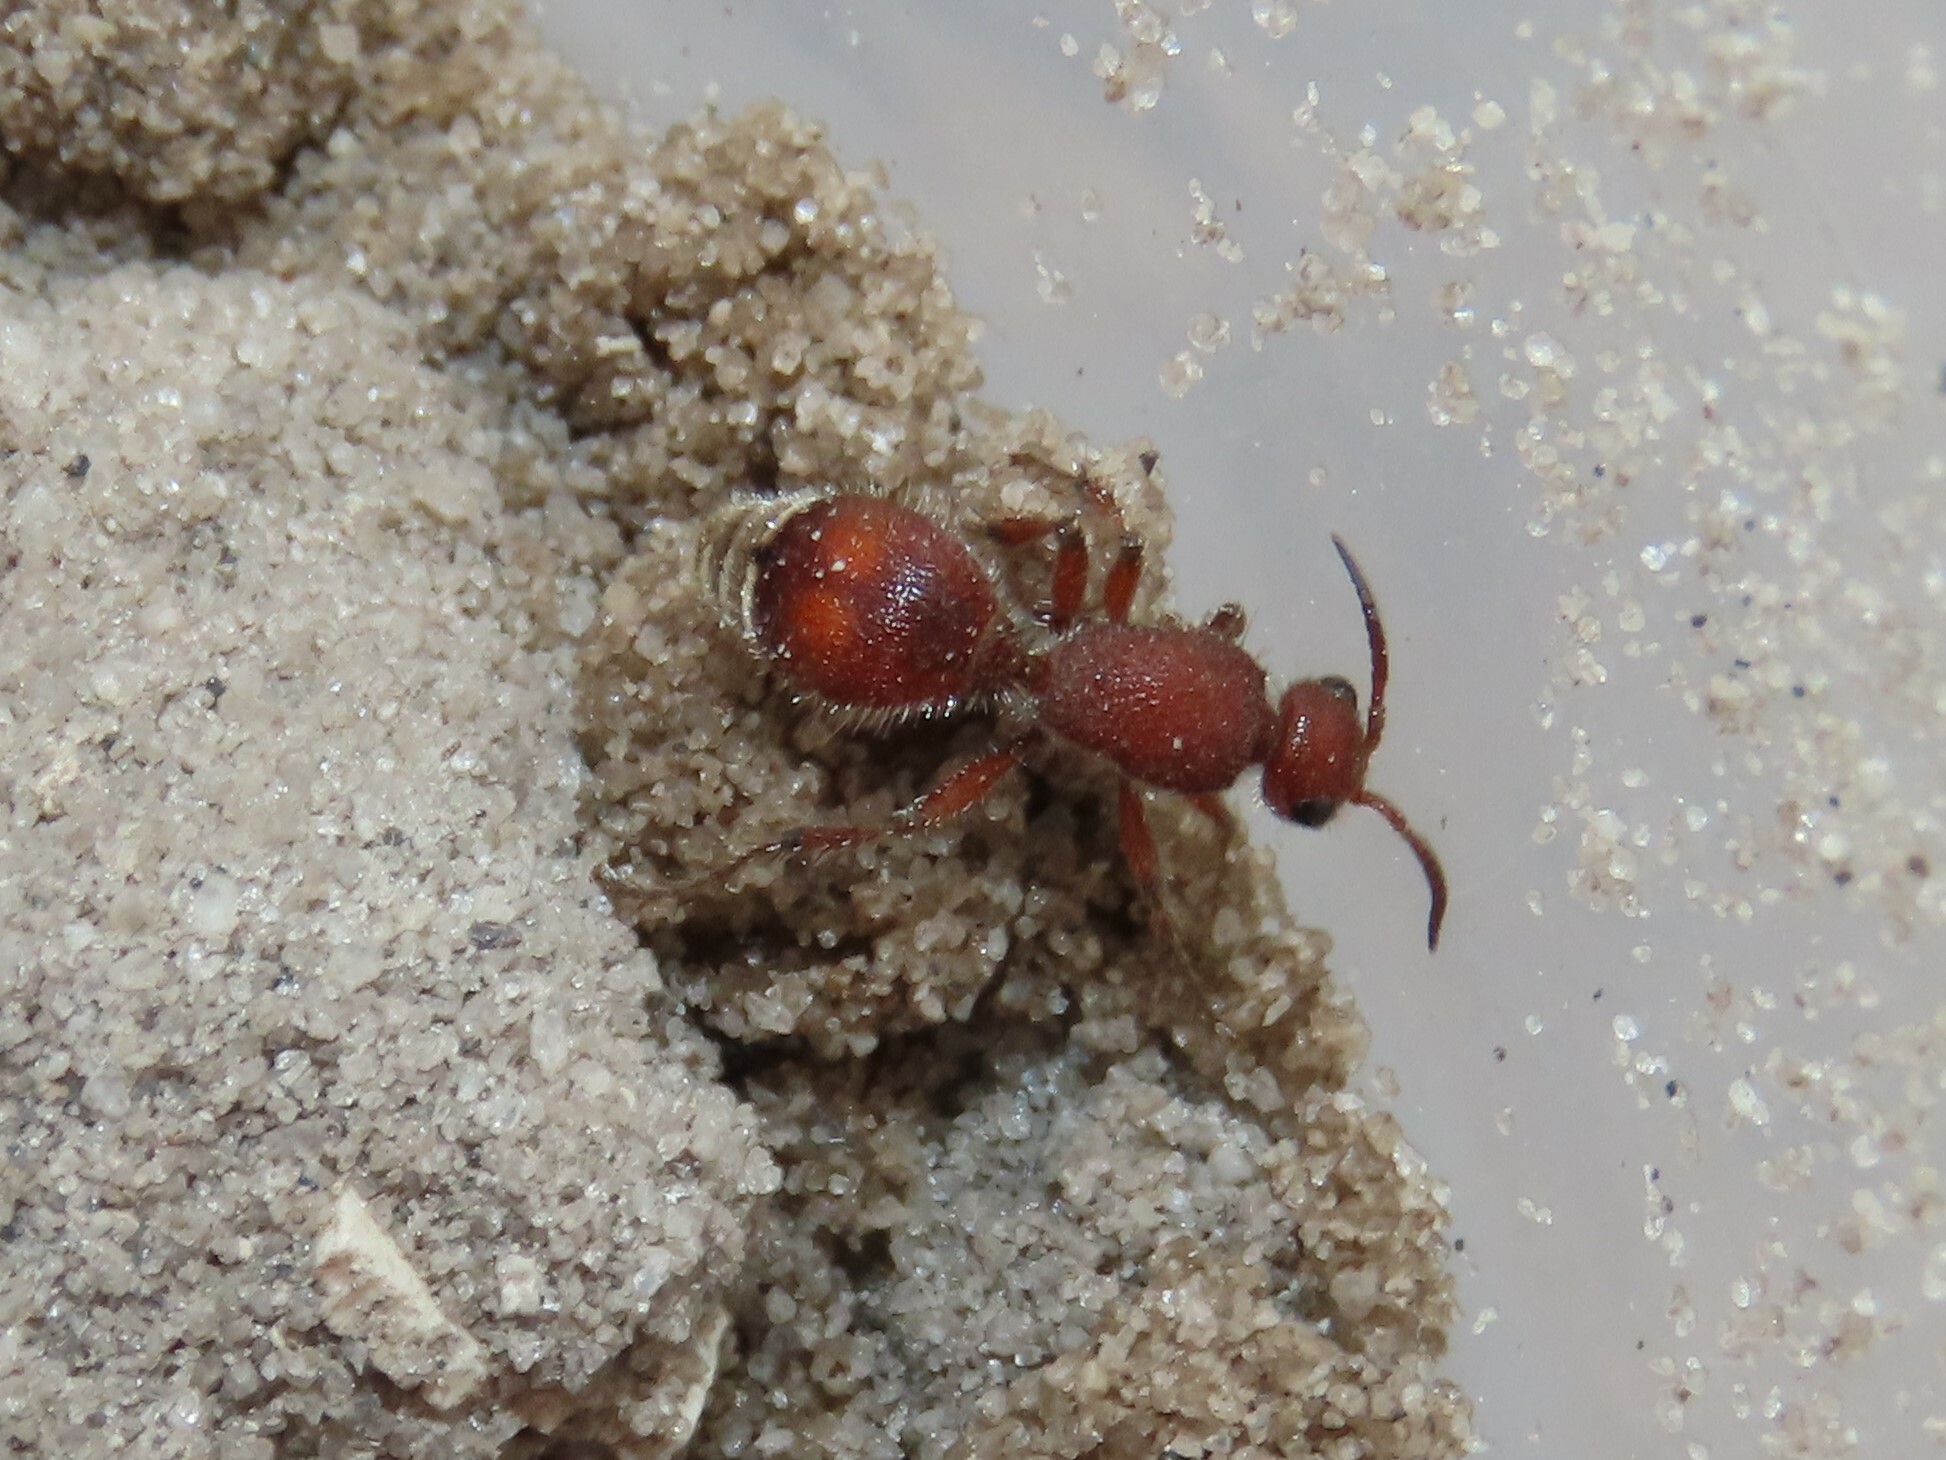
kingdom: Animalia
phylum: Arthropoda
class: Insecta
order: Hymenoptera
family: Mutillidae
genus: Dasymutilla
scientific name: Dasymutilla
